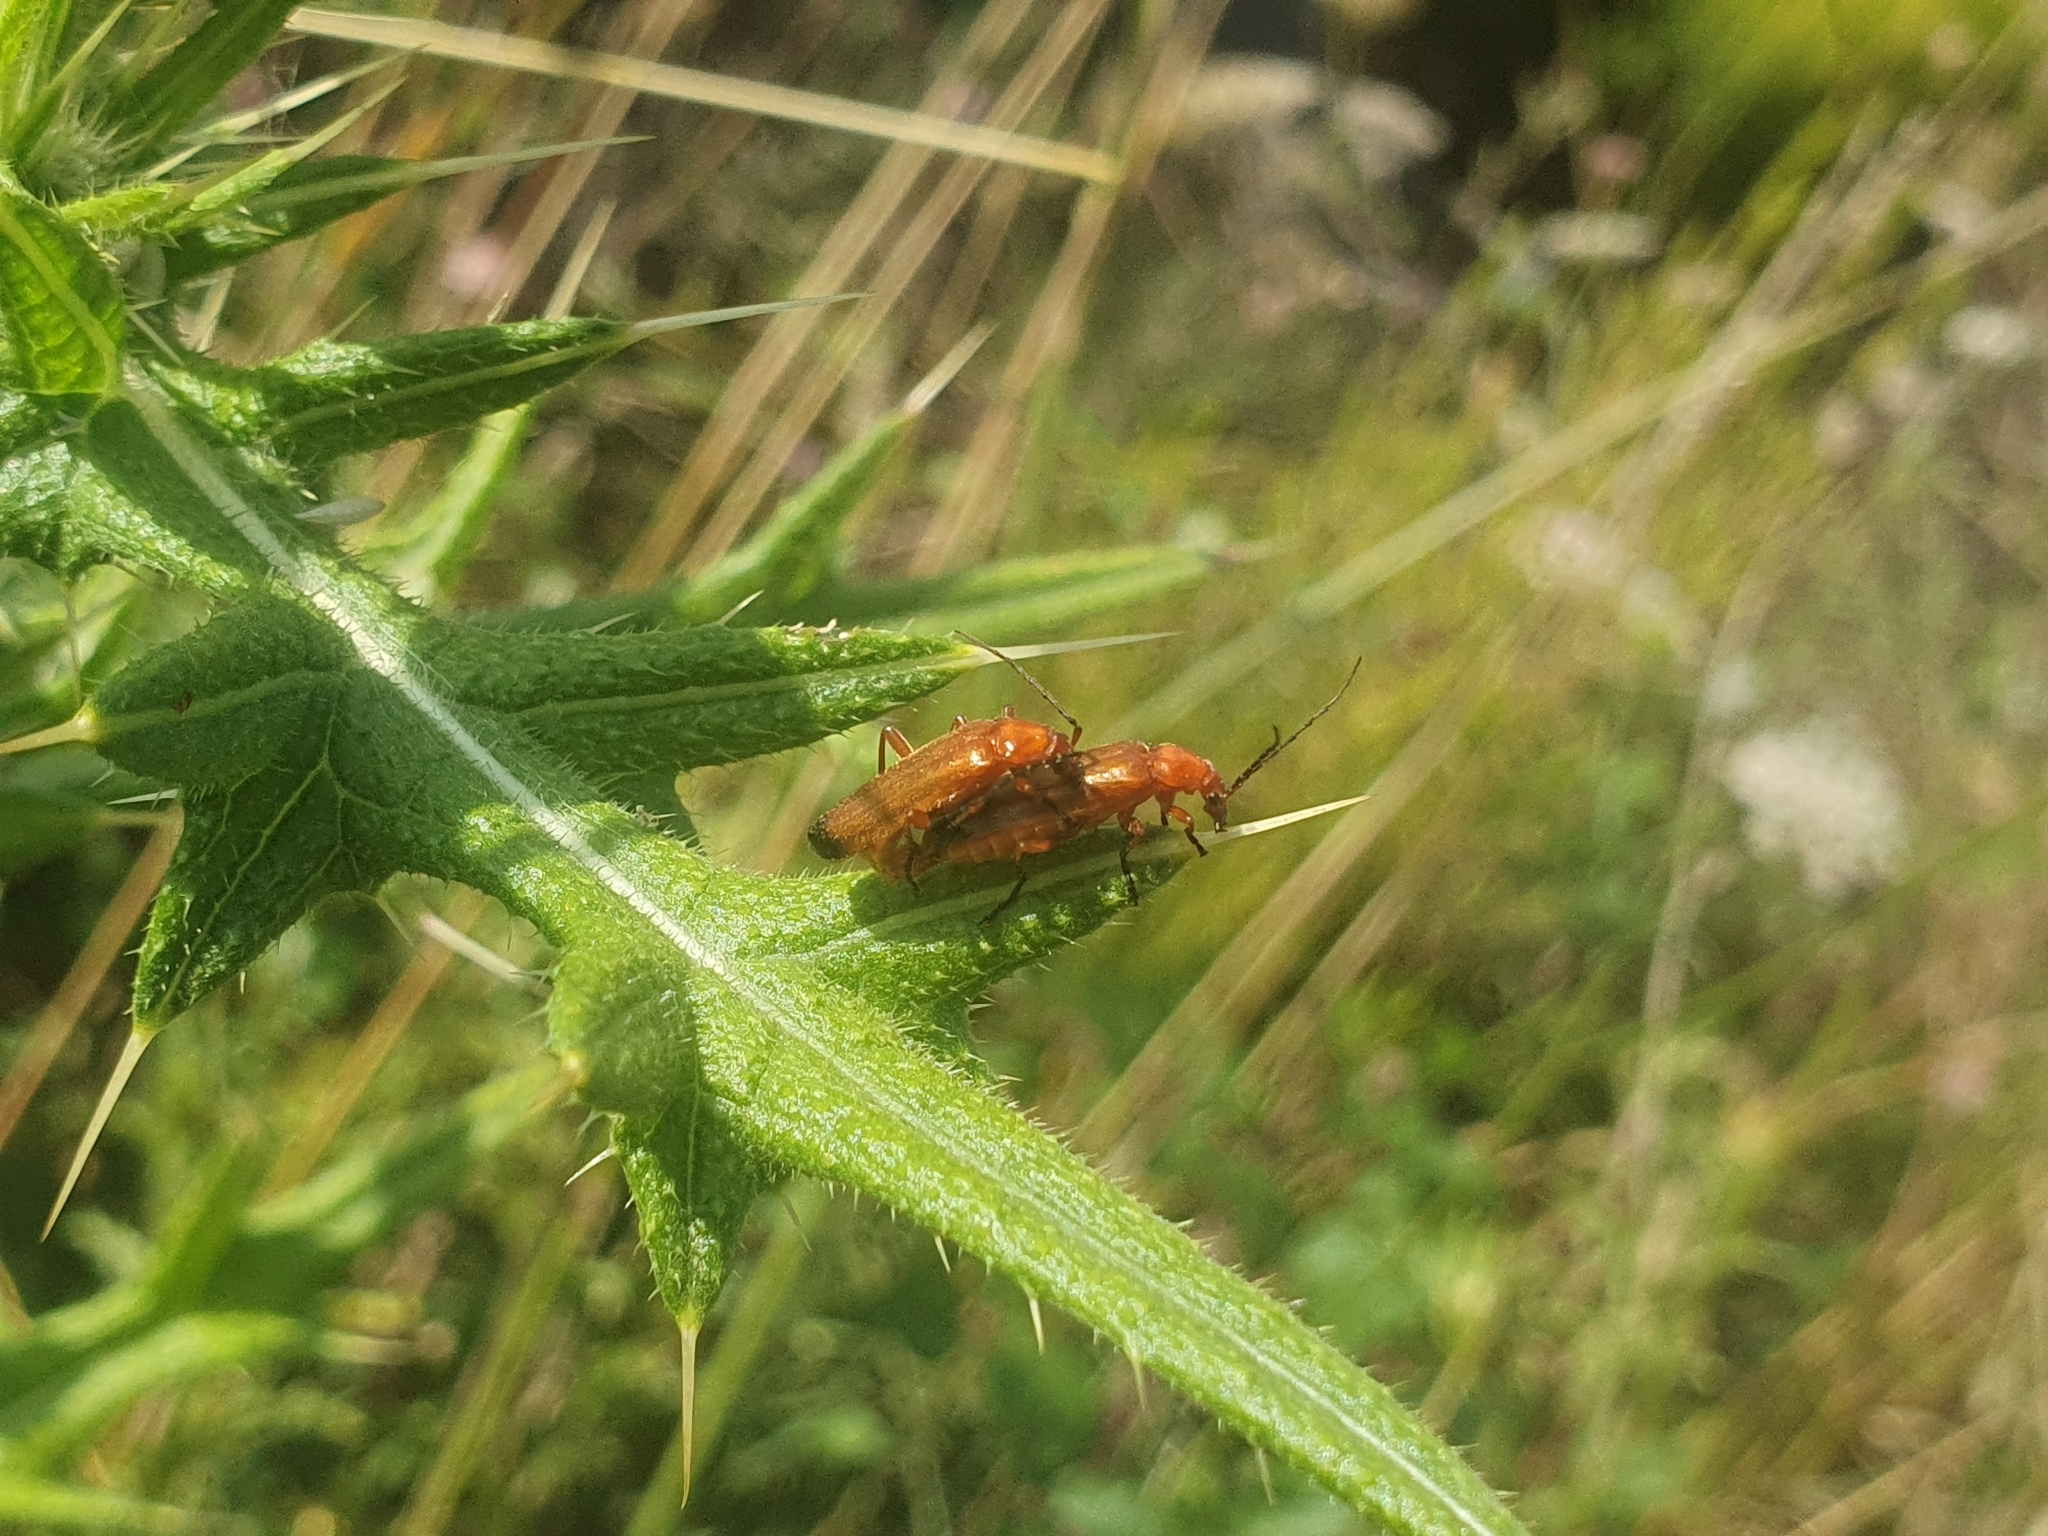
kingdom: Animalia
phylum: Arthropoda
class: Insecta
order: Coleoptera
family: Cantharidae
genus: Rhagonycha
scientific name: Rhagonycha fulva
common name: Common red soldier beetle
